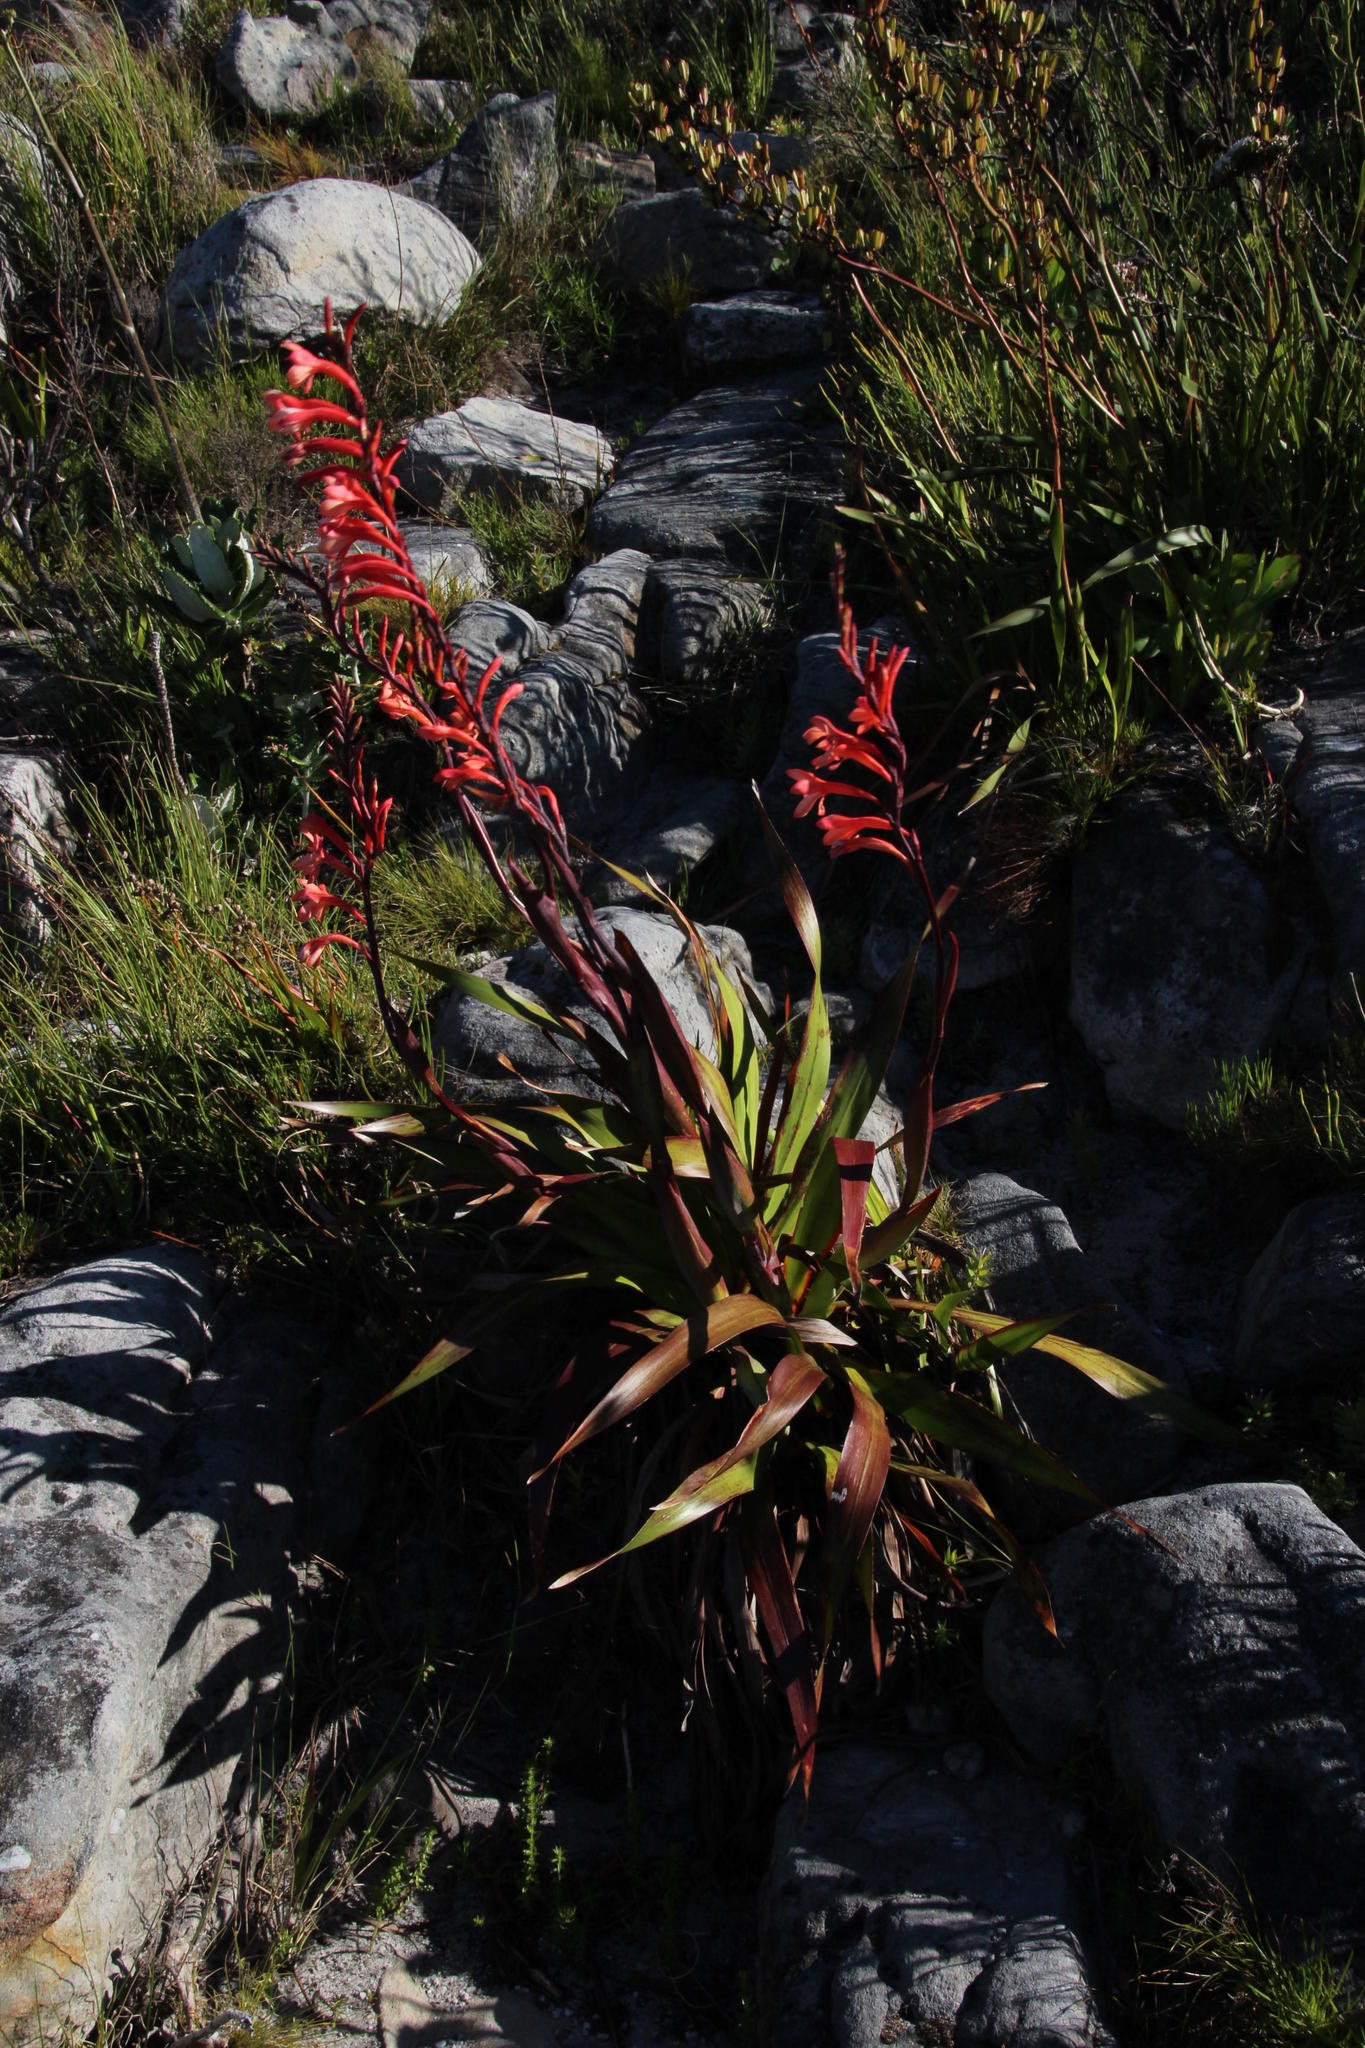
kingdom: Plantae
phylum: Tracheophyta
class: Liliopsida
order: Asparagales
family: Iridaceae
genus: Watsonia
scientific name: Watsonia tabularis
